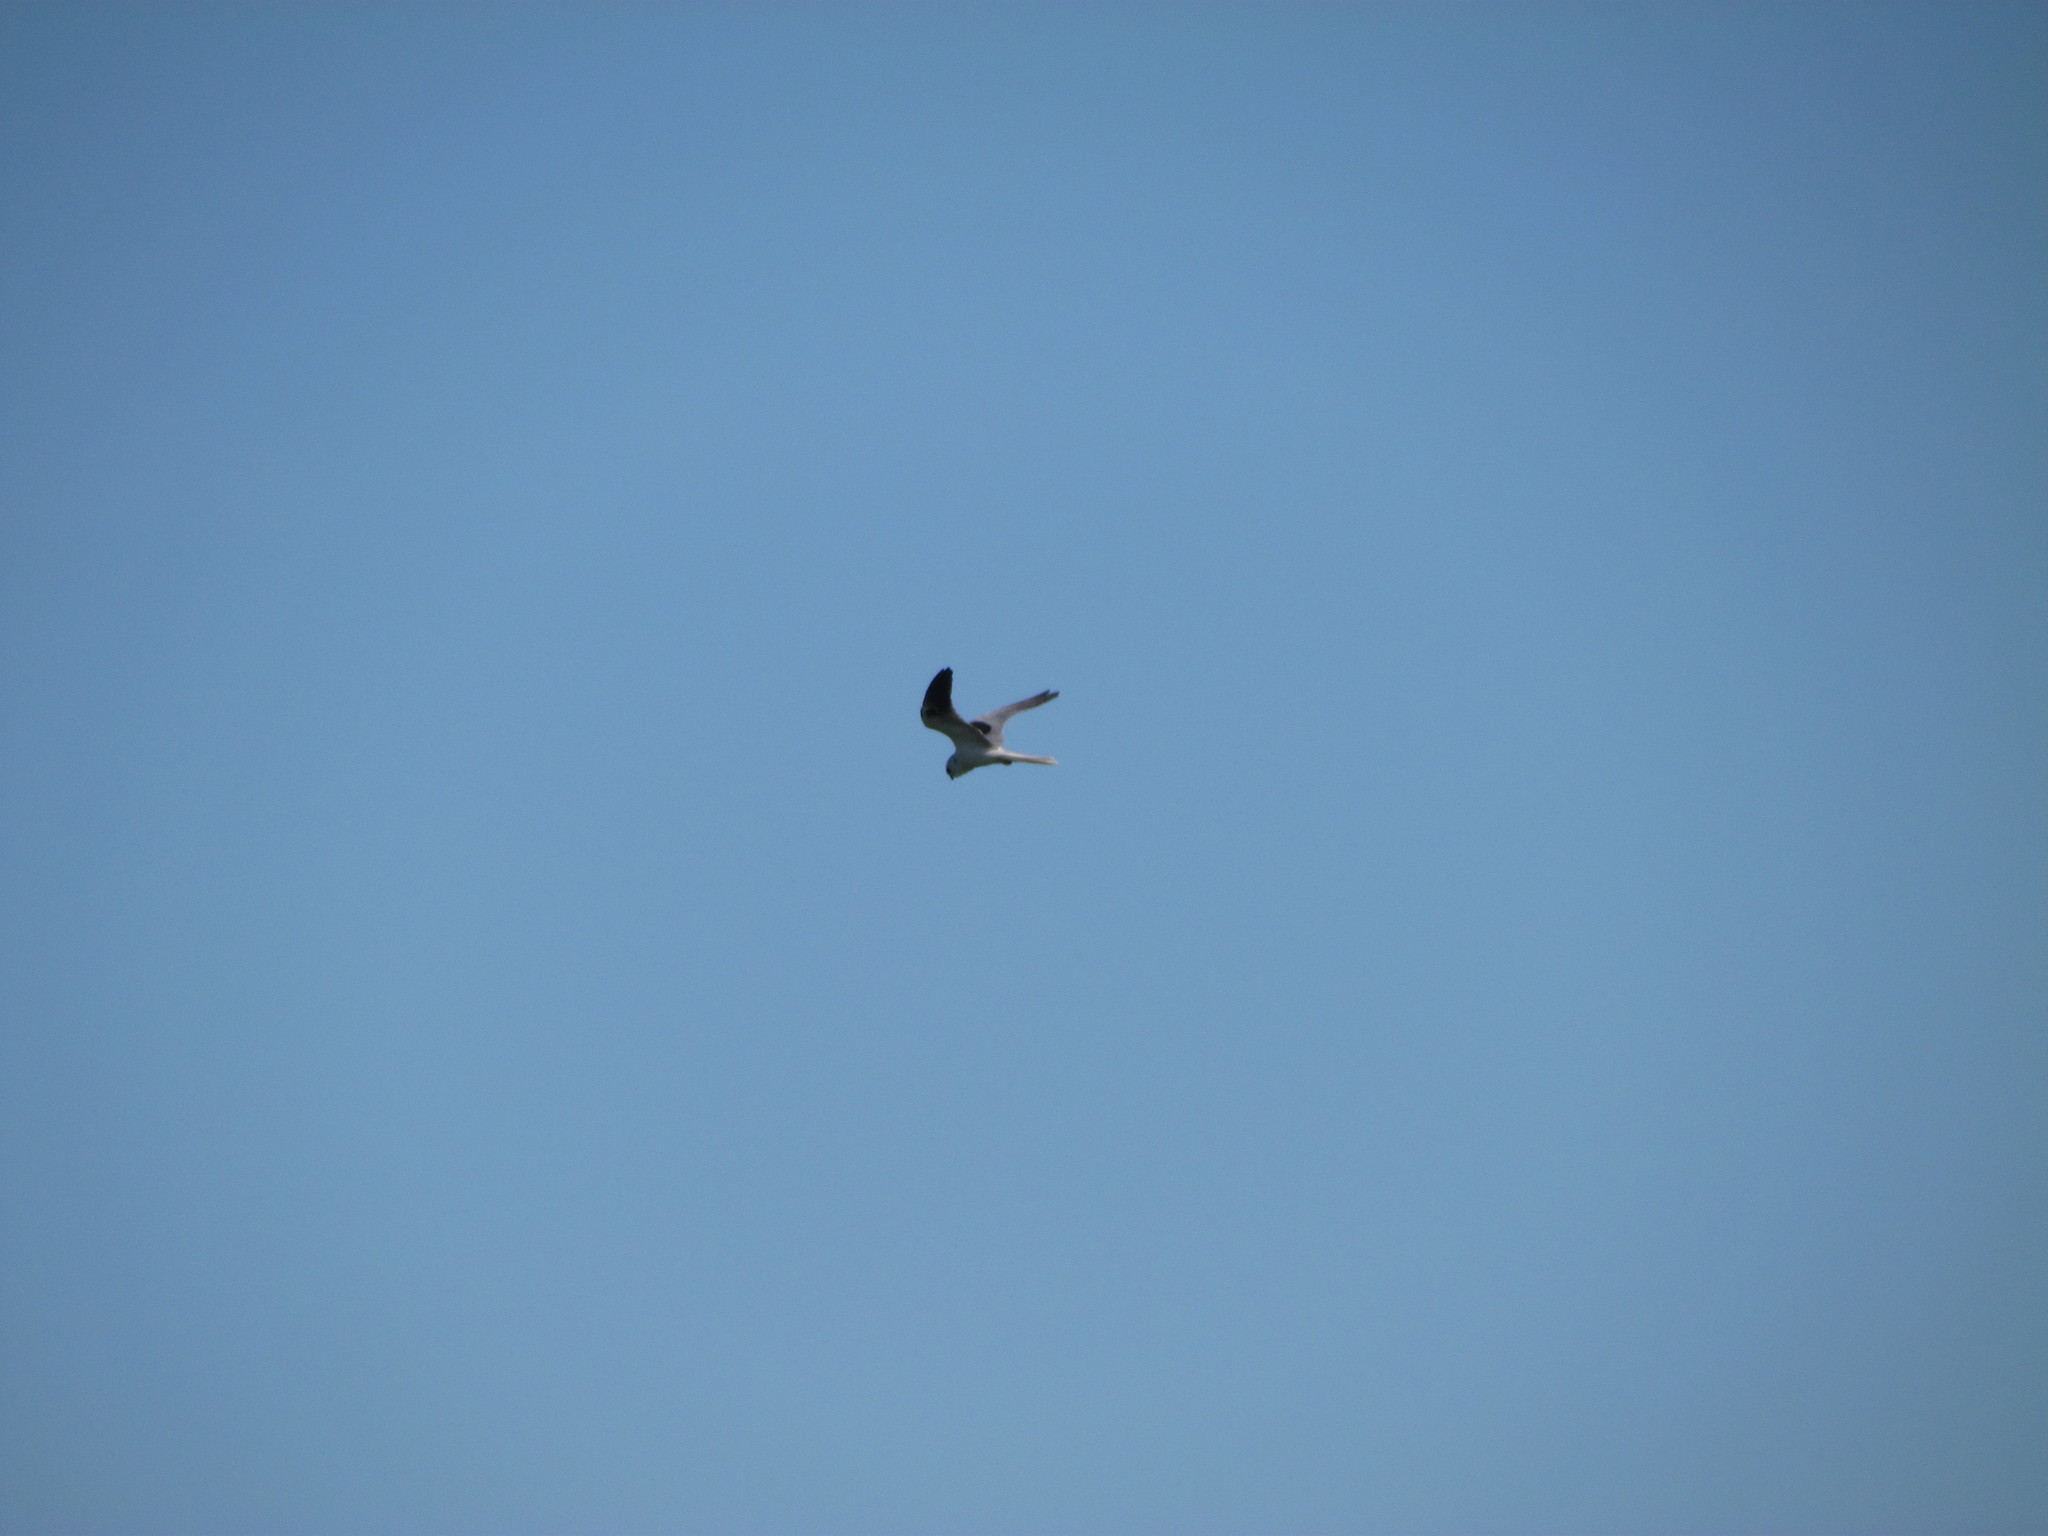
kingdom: Animalia
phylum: Chordata
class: Aves
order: Accipitriformes
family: Accipitridae
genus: Elanus
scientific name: Elanus leucurus
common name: White-tailed kite
